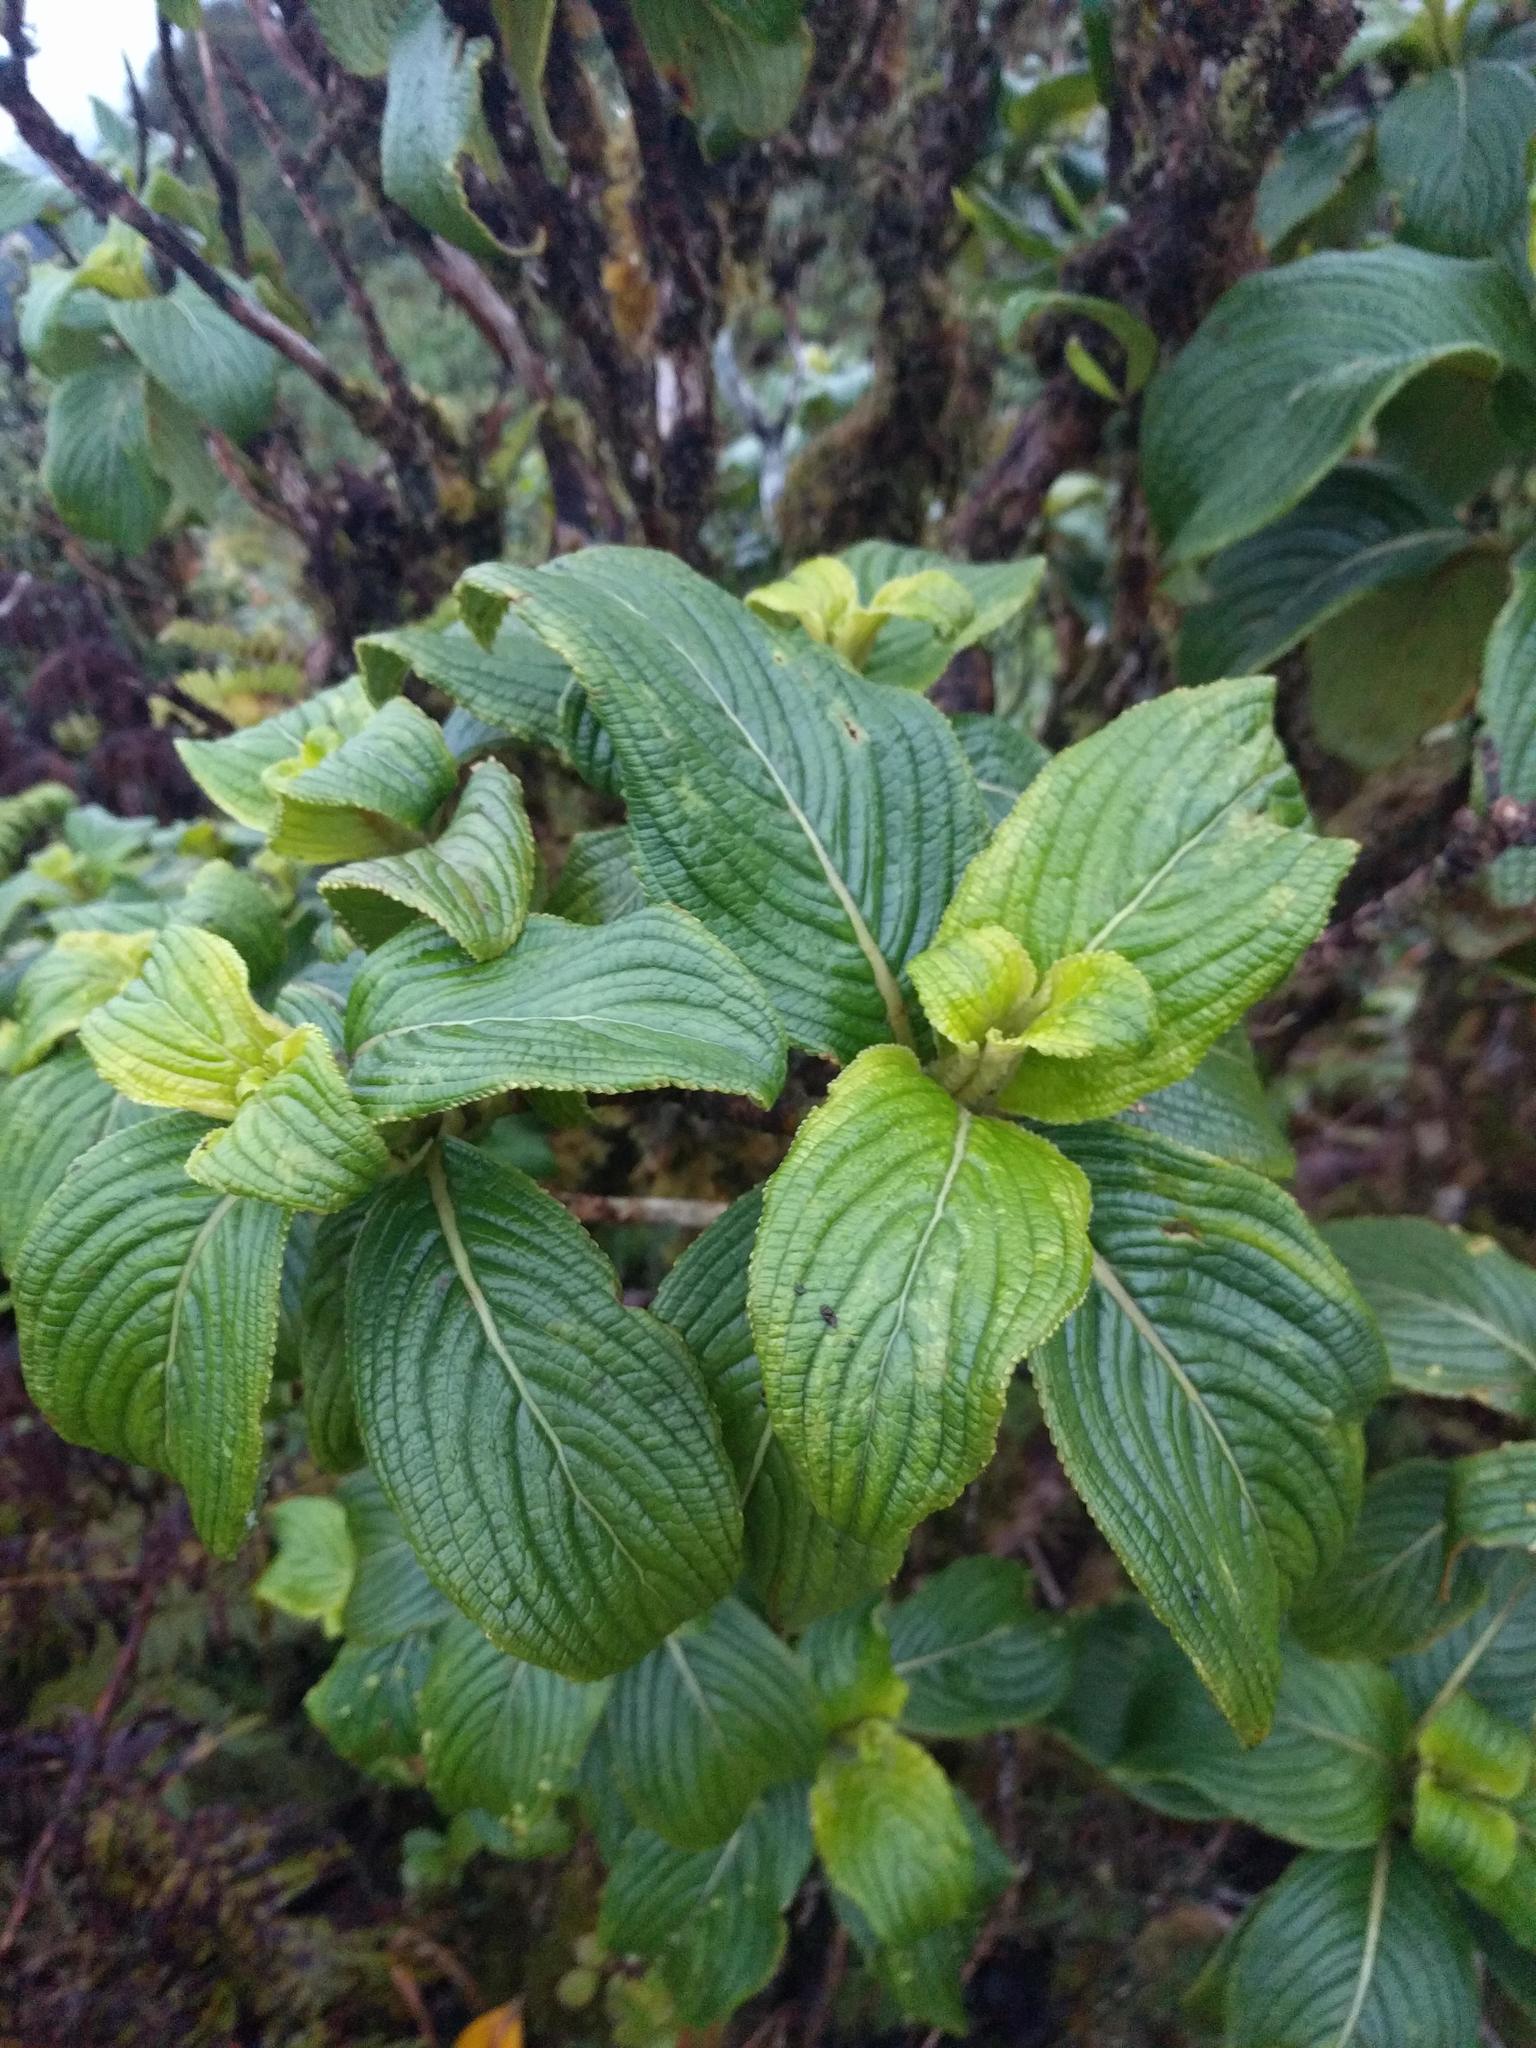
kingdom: Plantae
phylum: Tracheophyta
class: Magnoliopsida
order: Cornales
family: Hydrangeaceae
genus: Hydrangea
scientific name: Hydrangea arguta
